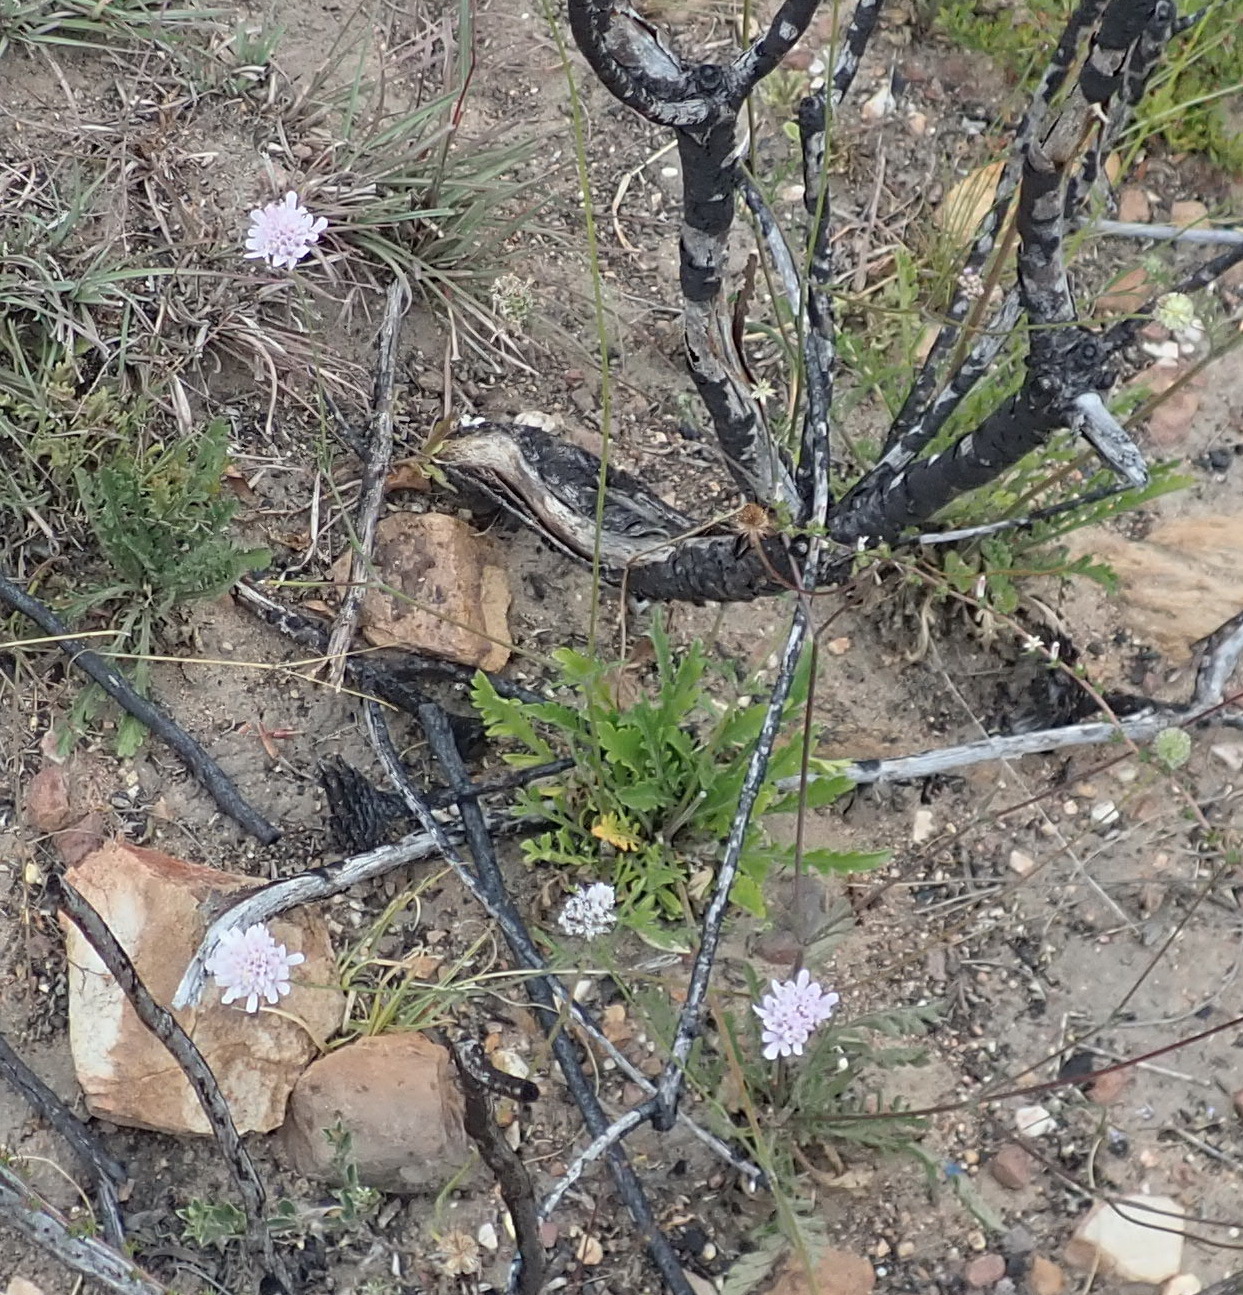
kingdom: Plantae
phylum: Tracheophyta
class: Magnoliopsida
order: Dipsacales
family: Caprifoliaceae
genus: Scabiosa
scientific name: Scabiosa columbaria
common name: Small scabious
